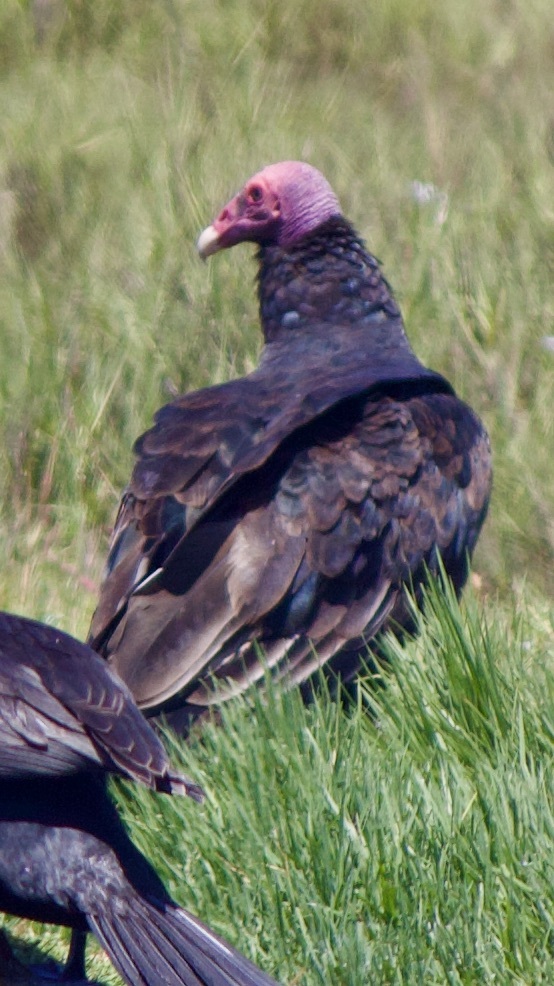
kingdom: Animalia
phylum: Chordata
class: Aves
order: Accipitriformes
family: Cathartidae
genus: Cathartes
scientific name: Cathartes aura
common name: Turkey vulture
